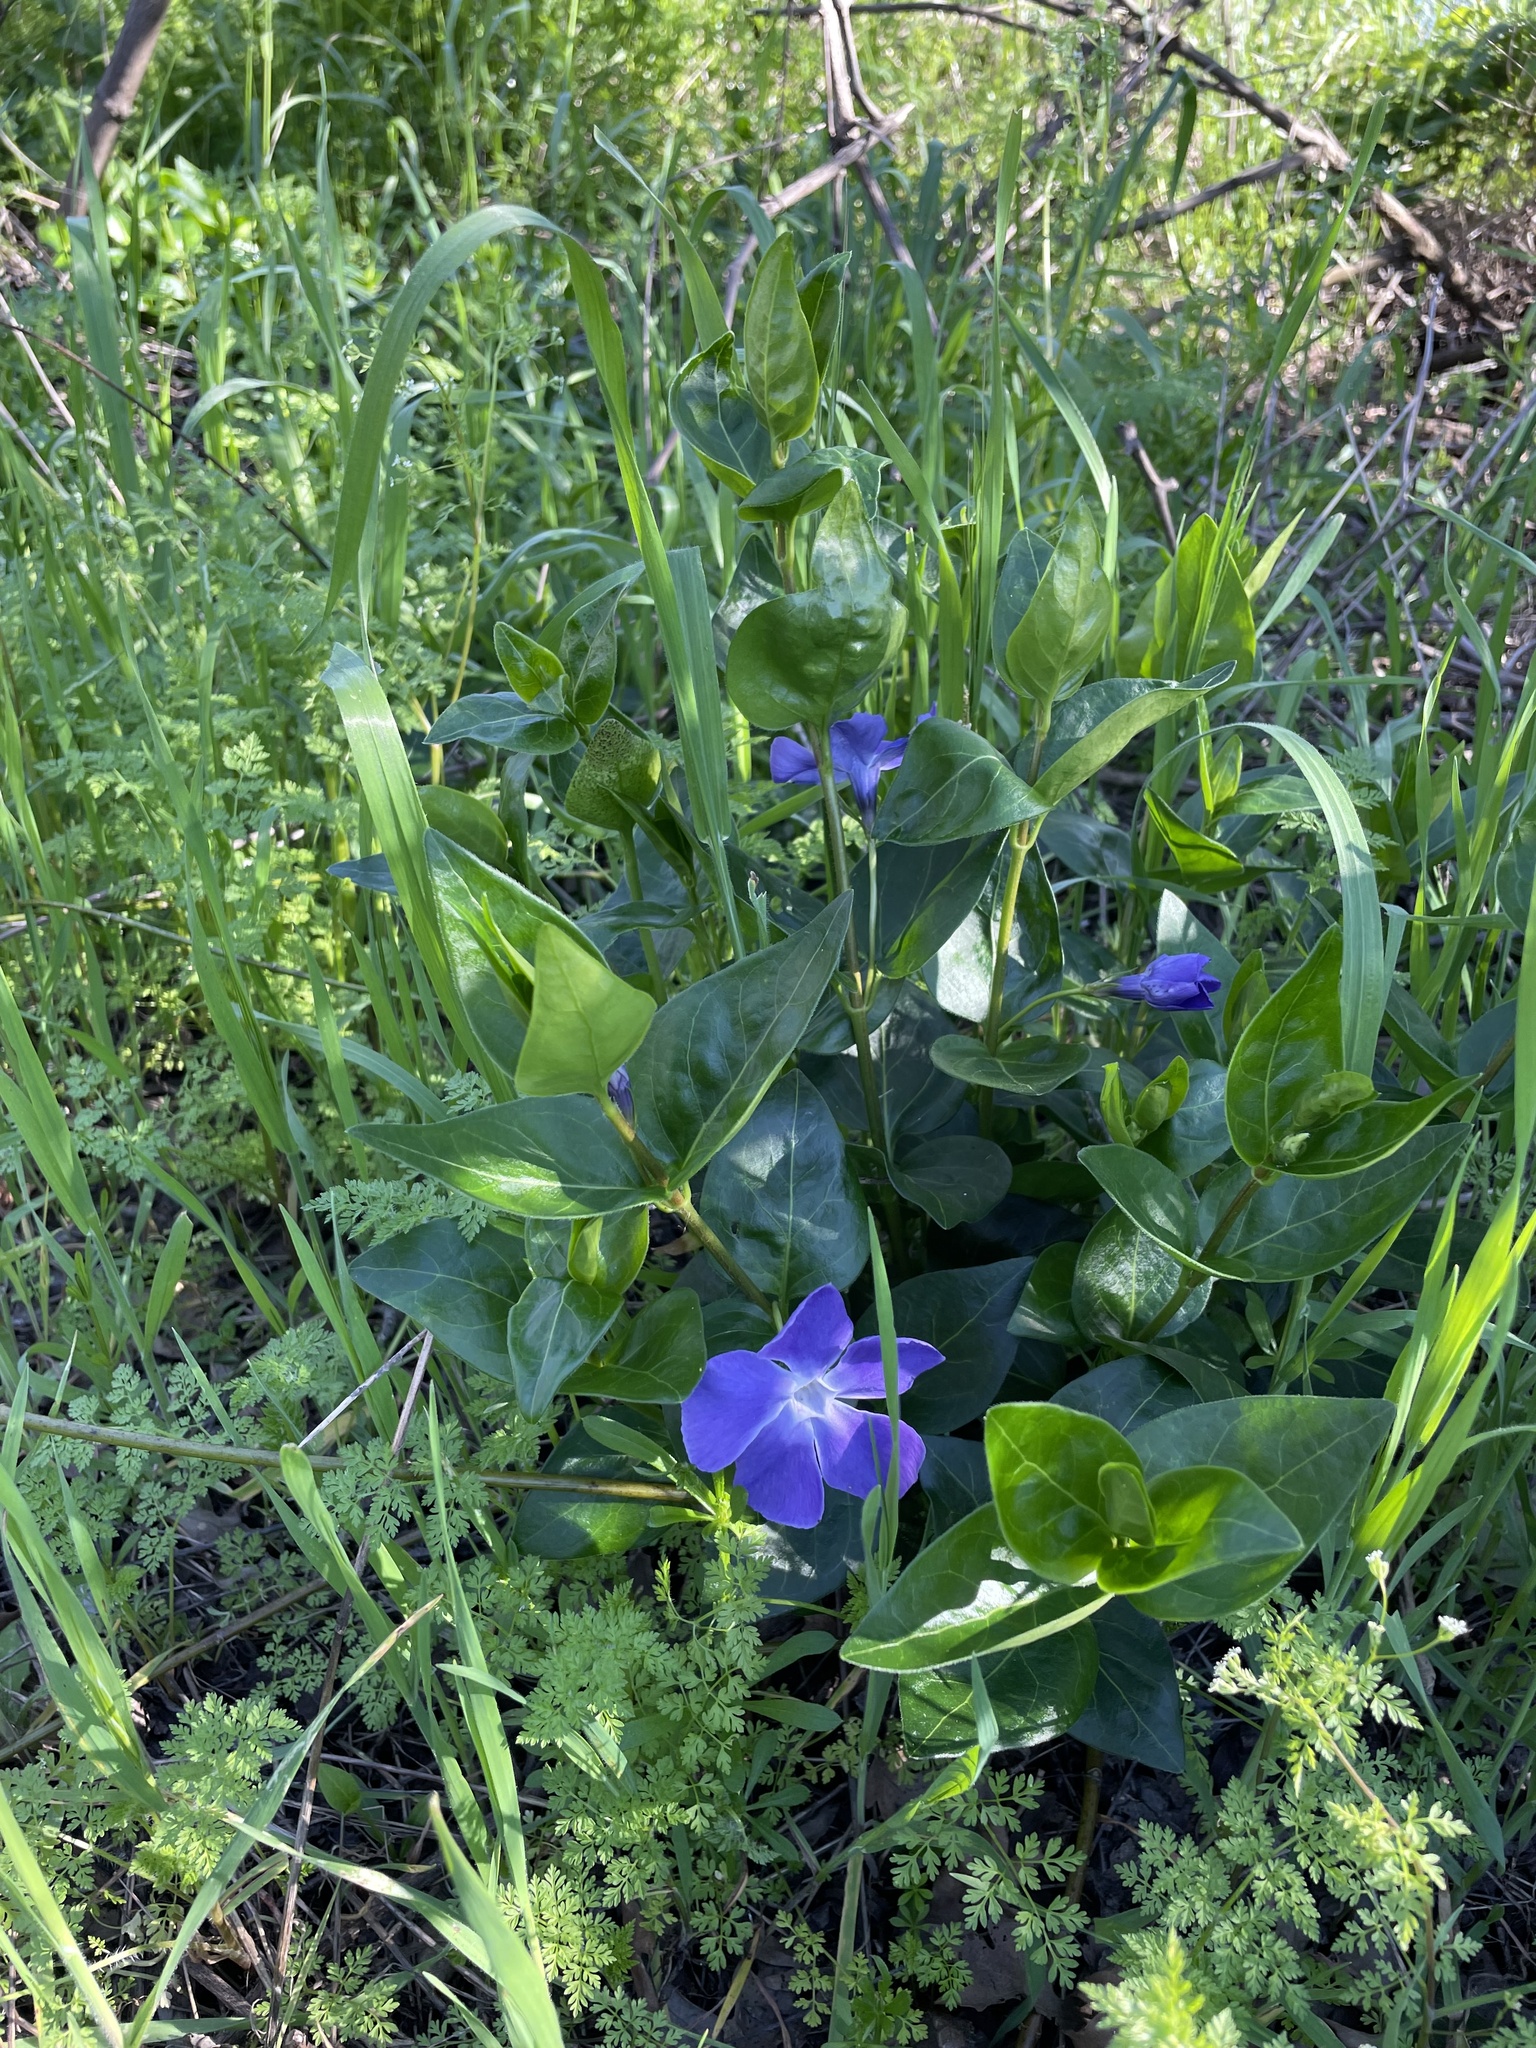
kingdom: Plantae
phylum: Tracheophyta
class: Magnoliopsida
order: Gentianales
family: Apocynaceae
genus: Vinca
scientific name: Vinca major
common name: Greater periwinkle
